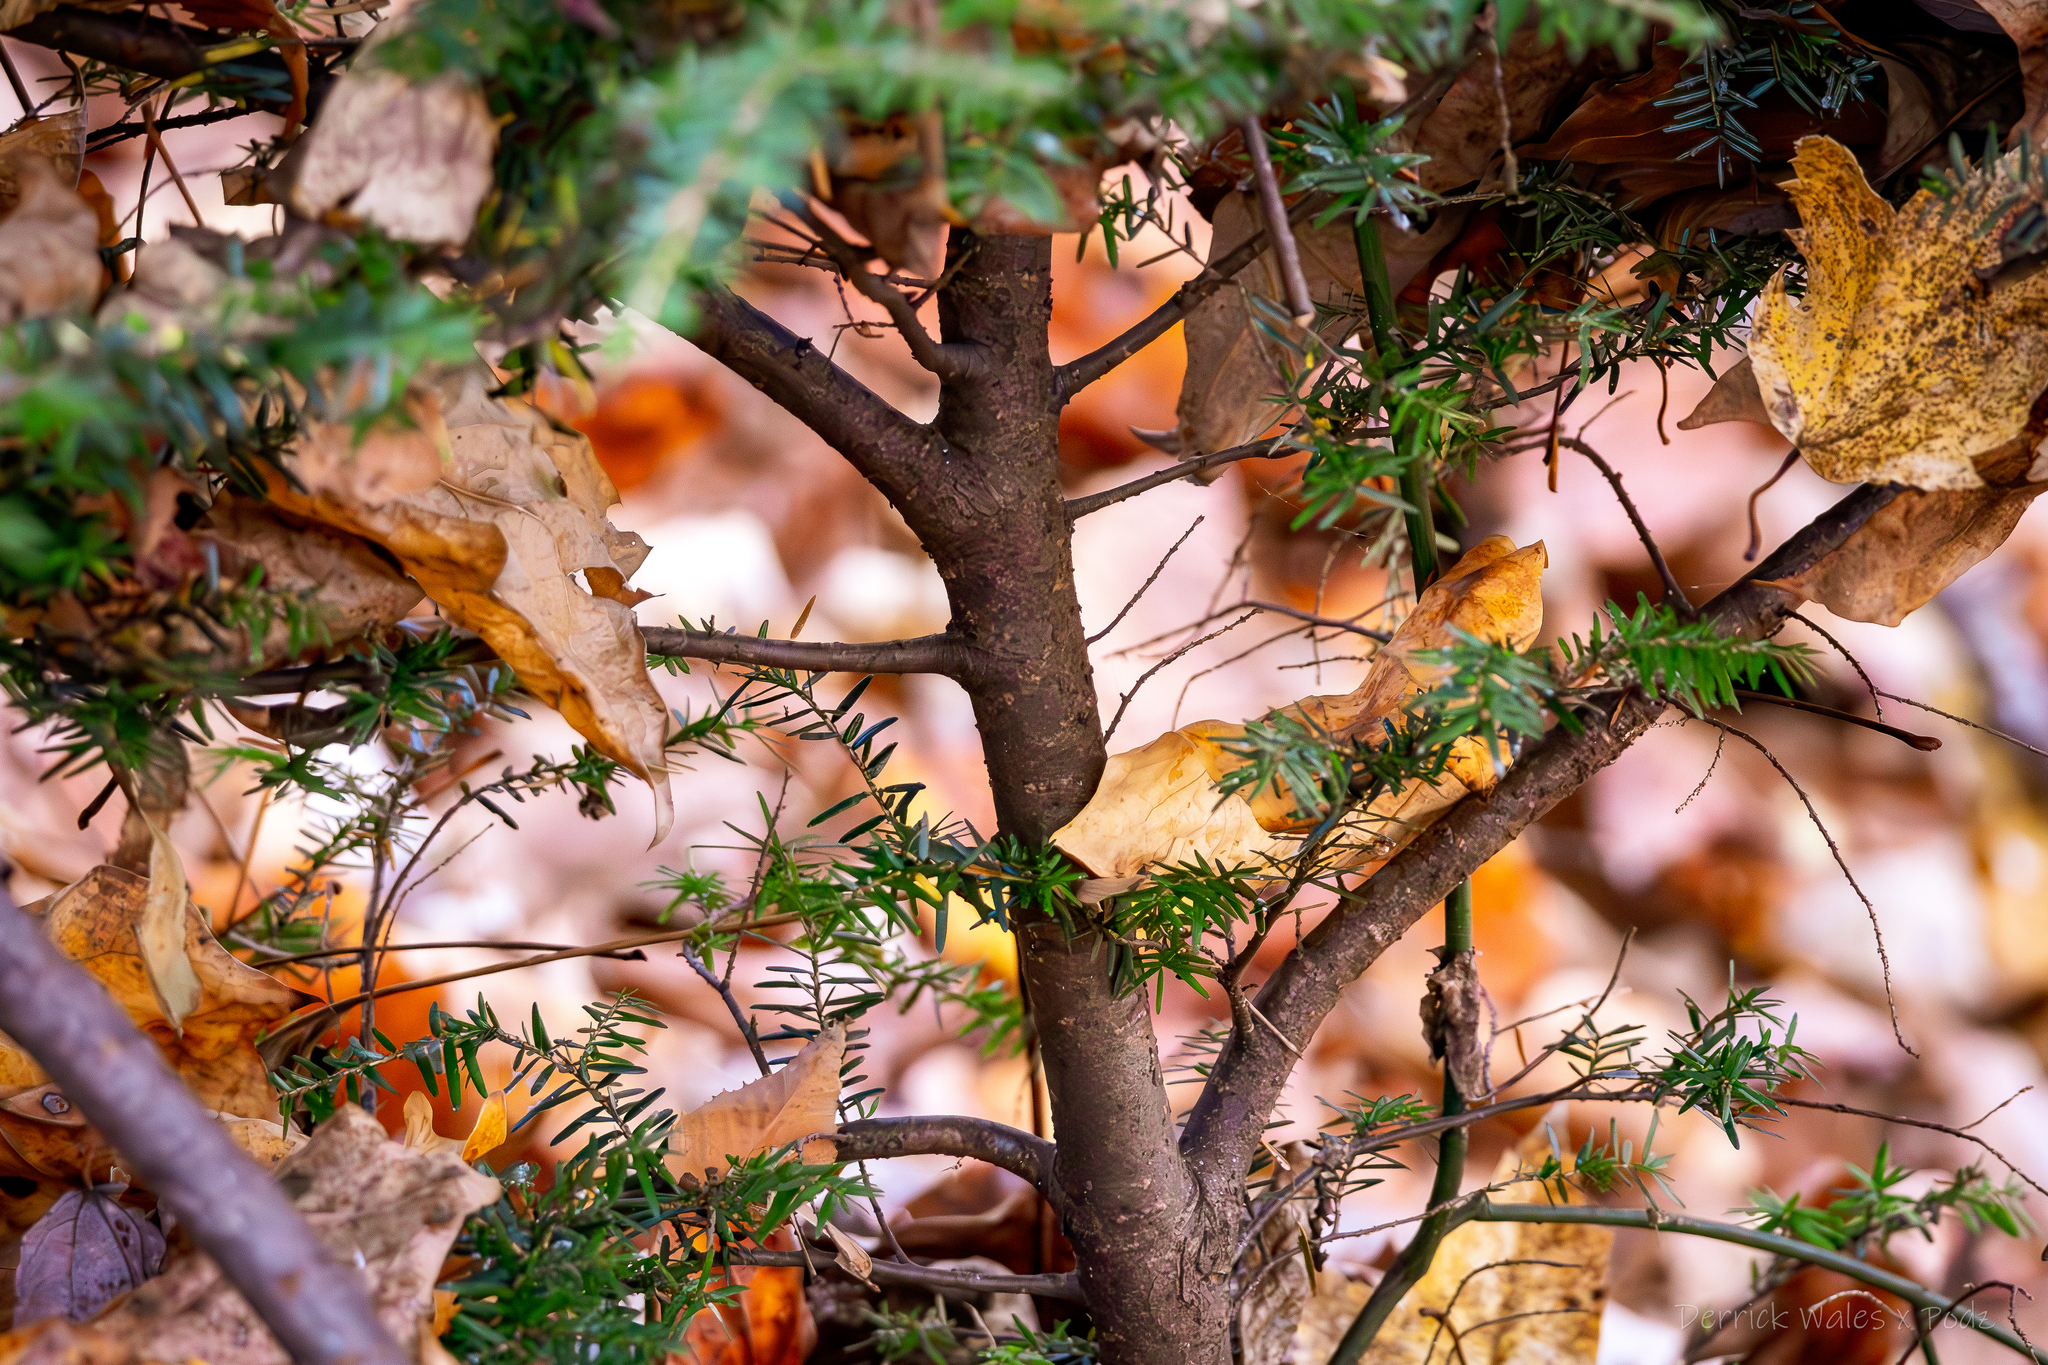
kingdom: Plantae
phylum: Tracheophyta
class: Pinopsida
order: Pinales
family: Pinaceae
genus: Tsuga
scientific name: Tsuga canadensis
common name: Eastern hemlock
